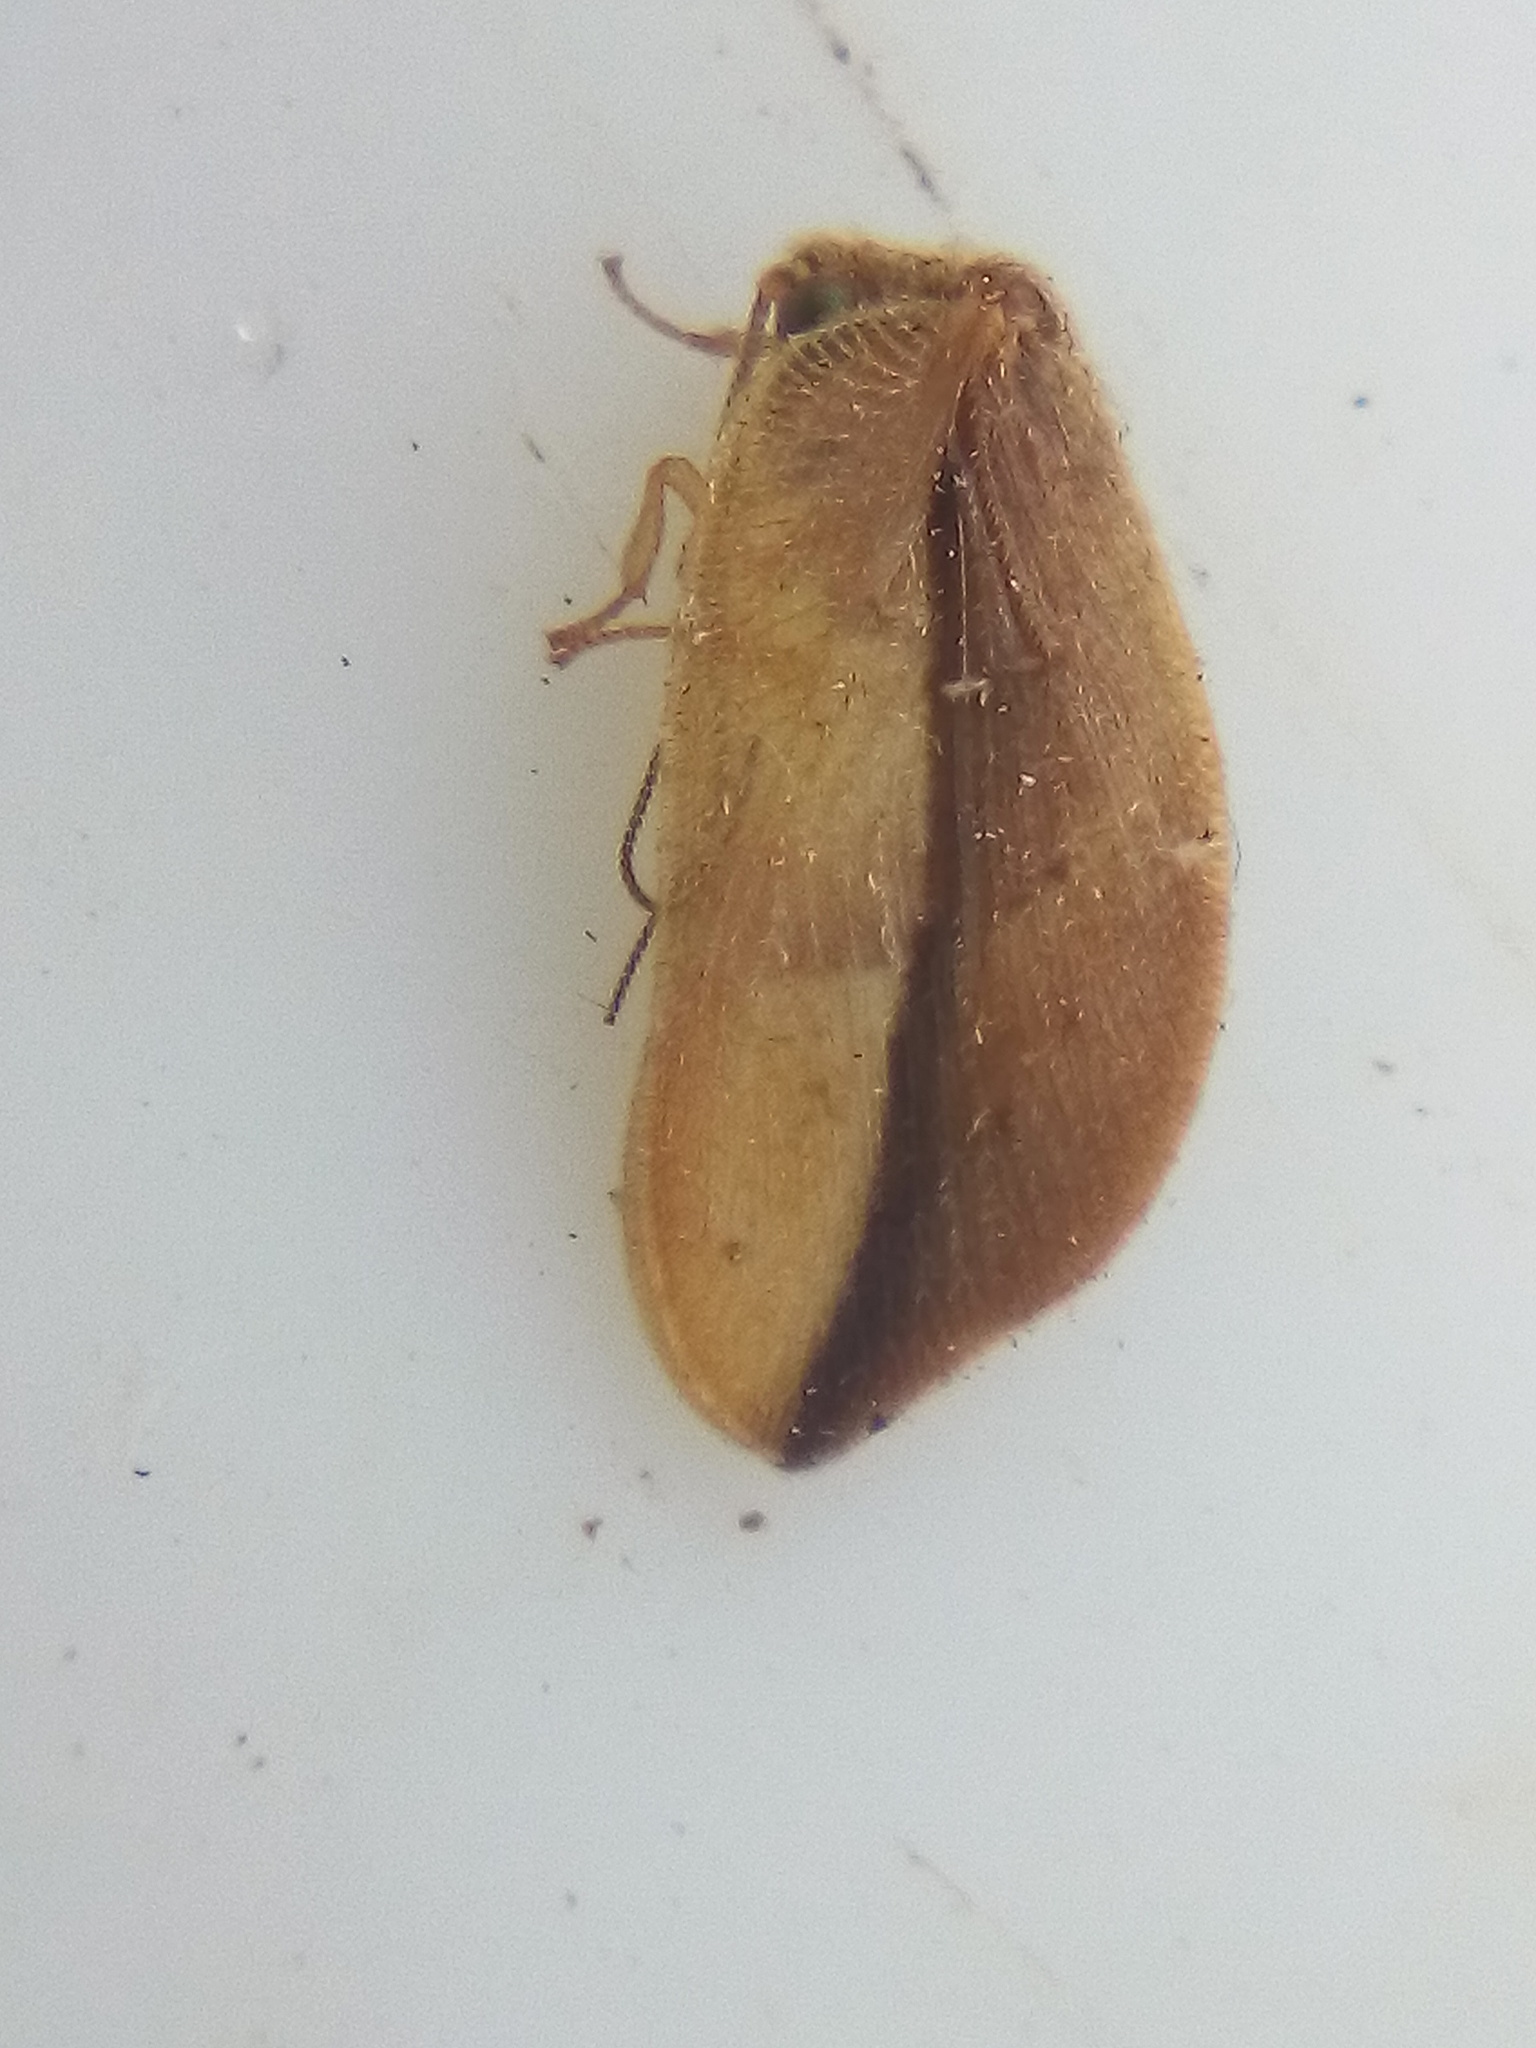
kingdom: Animalia
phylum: Arthropoda
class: Insecta
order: Neuroptera
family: Hemerobiidae
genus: Drepanacra
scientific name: Drepanacra binocula
